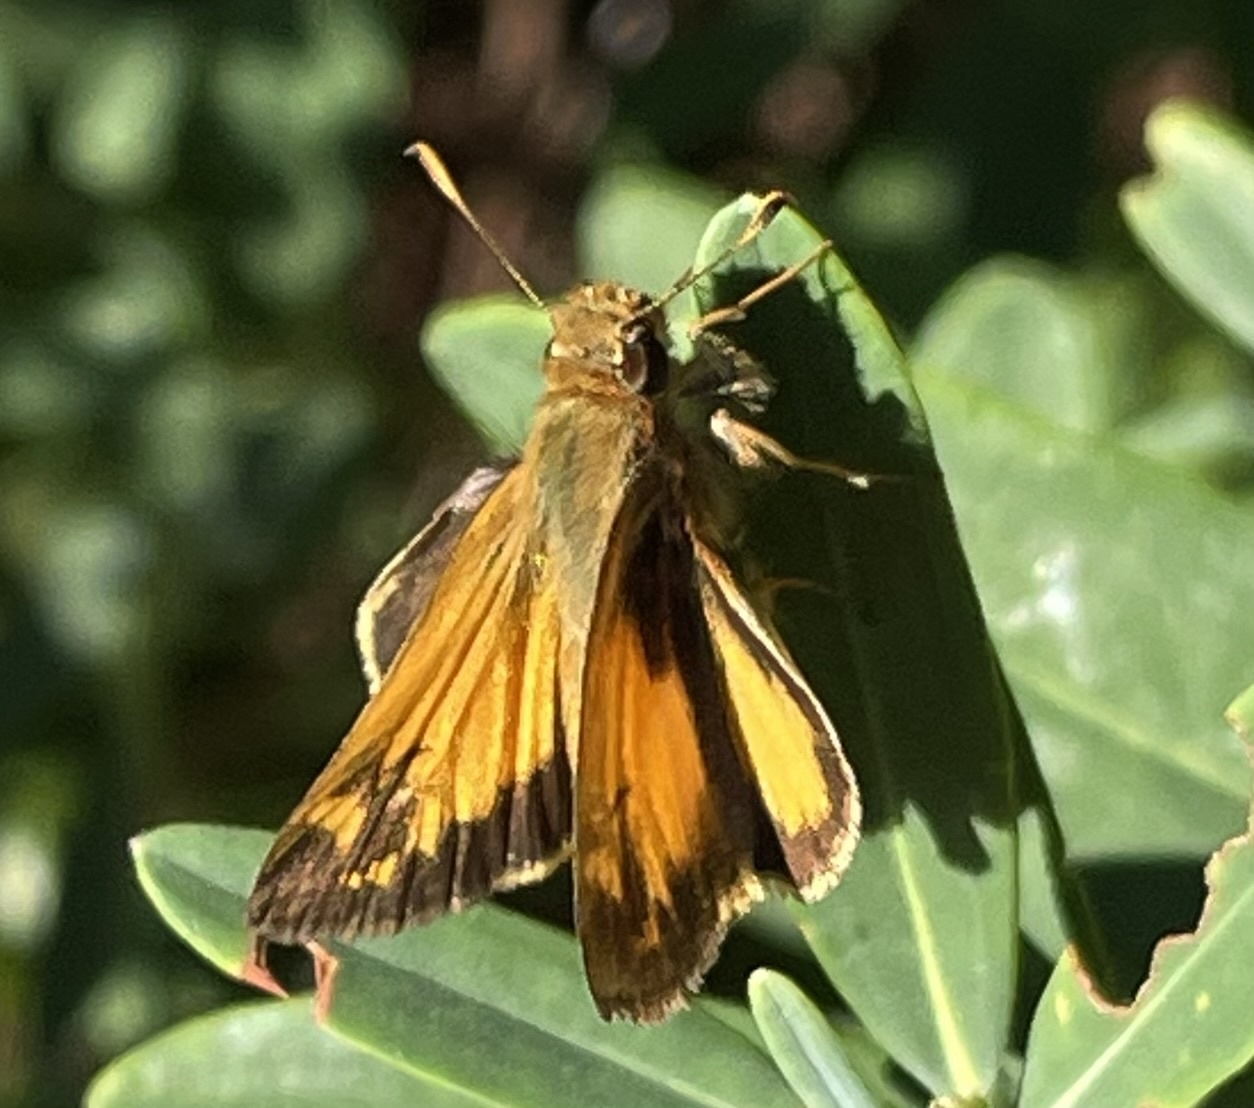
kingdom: Animalia
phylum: Arthropoda
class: Insecta
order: Lepidoptera
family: Hesperiidae
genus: Lon
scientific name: Lon zabulon
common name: Zabulon skipper
